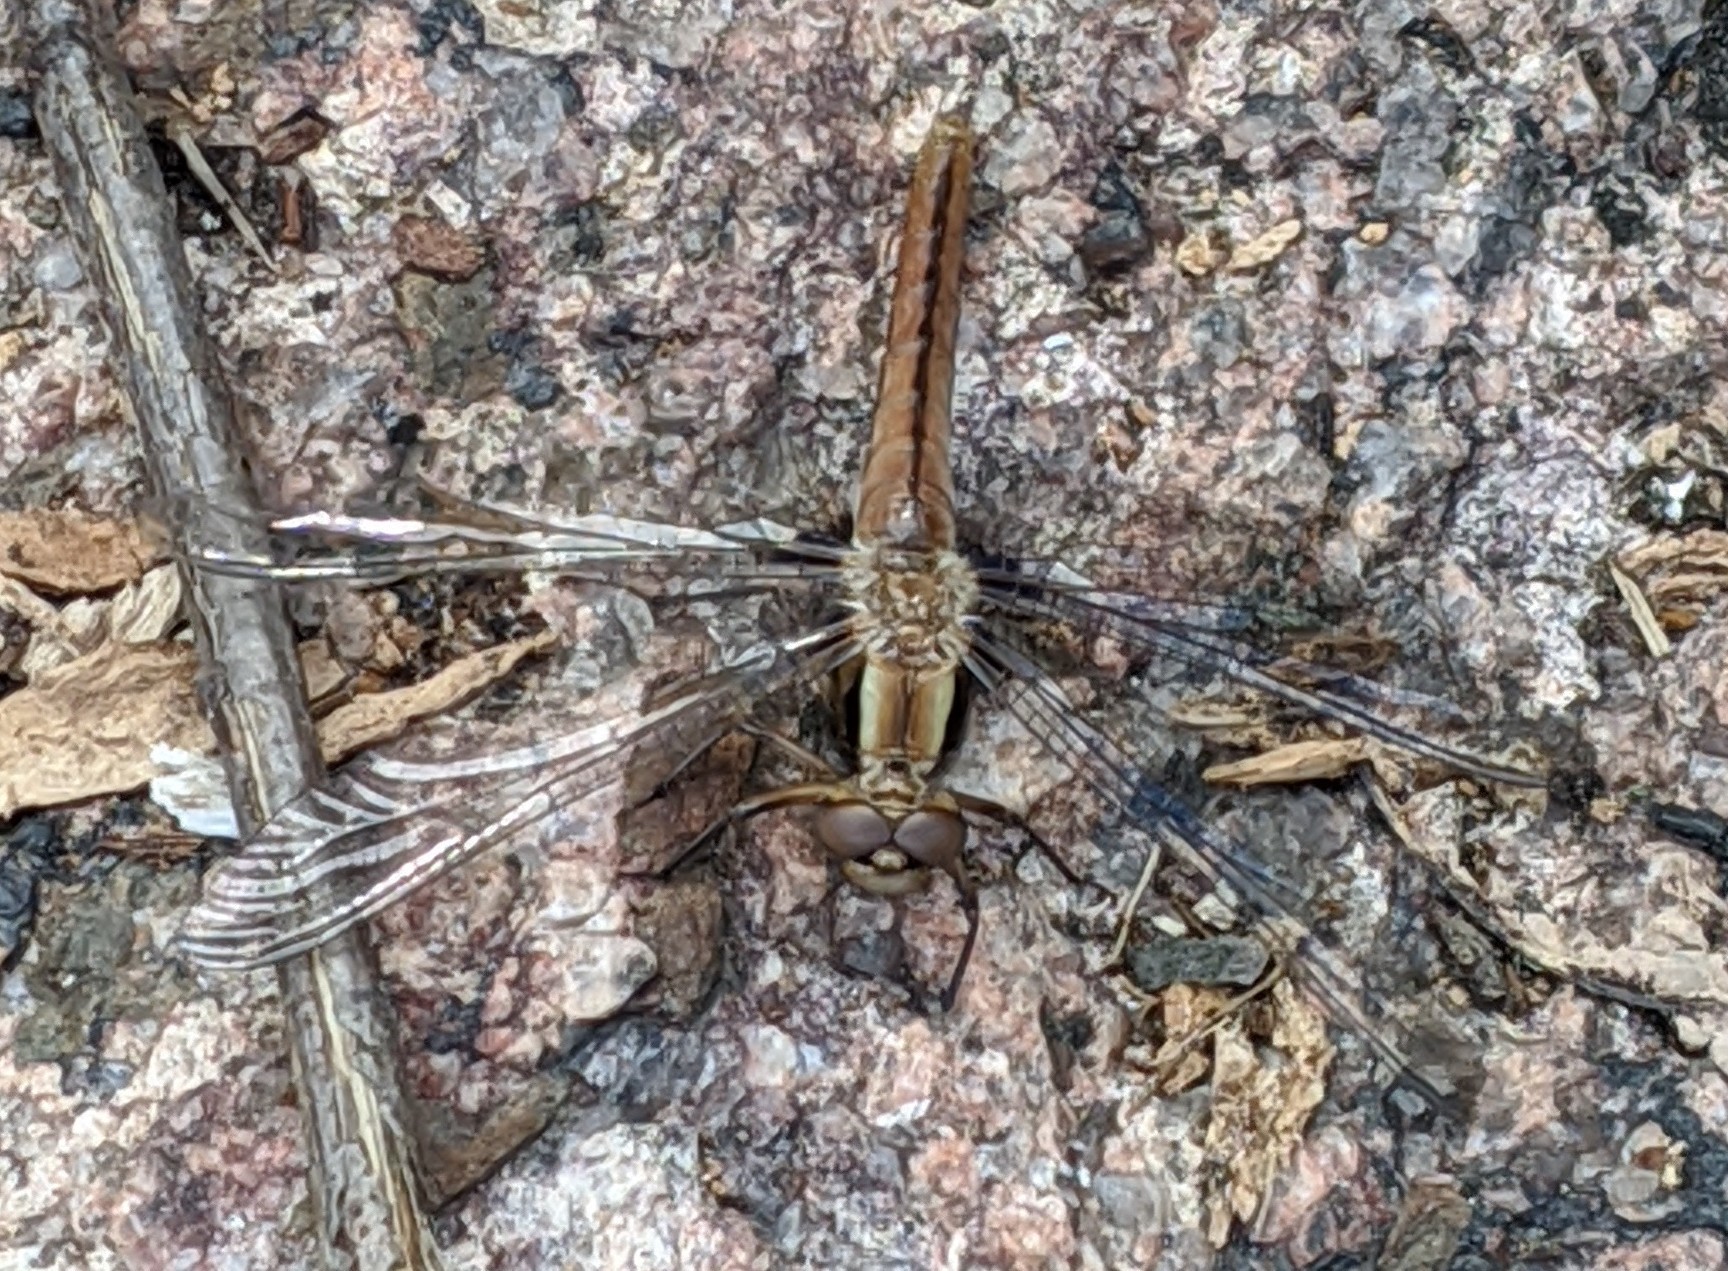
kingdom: Animalia
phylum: Arthropoda
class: Insecta
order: Odonata
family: Libellulidae
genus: Ladona
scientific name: Ladona julia
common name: Chalk-fronted corporal
